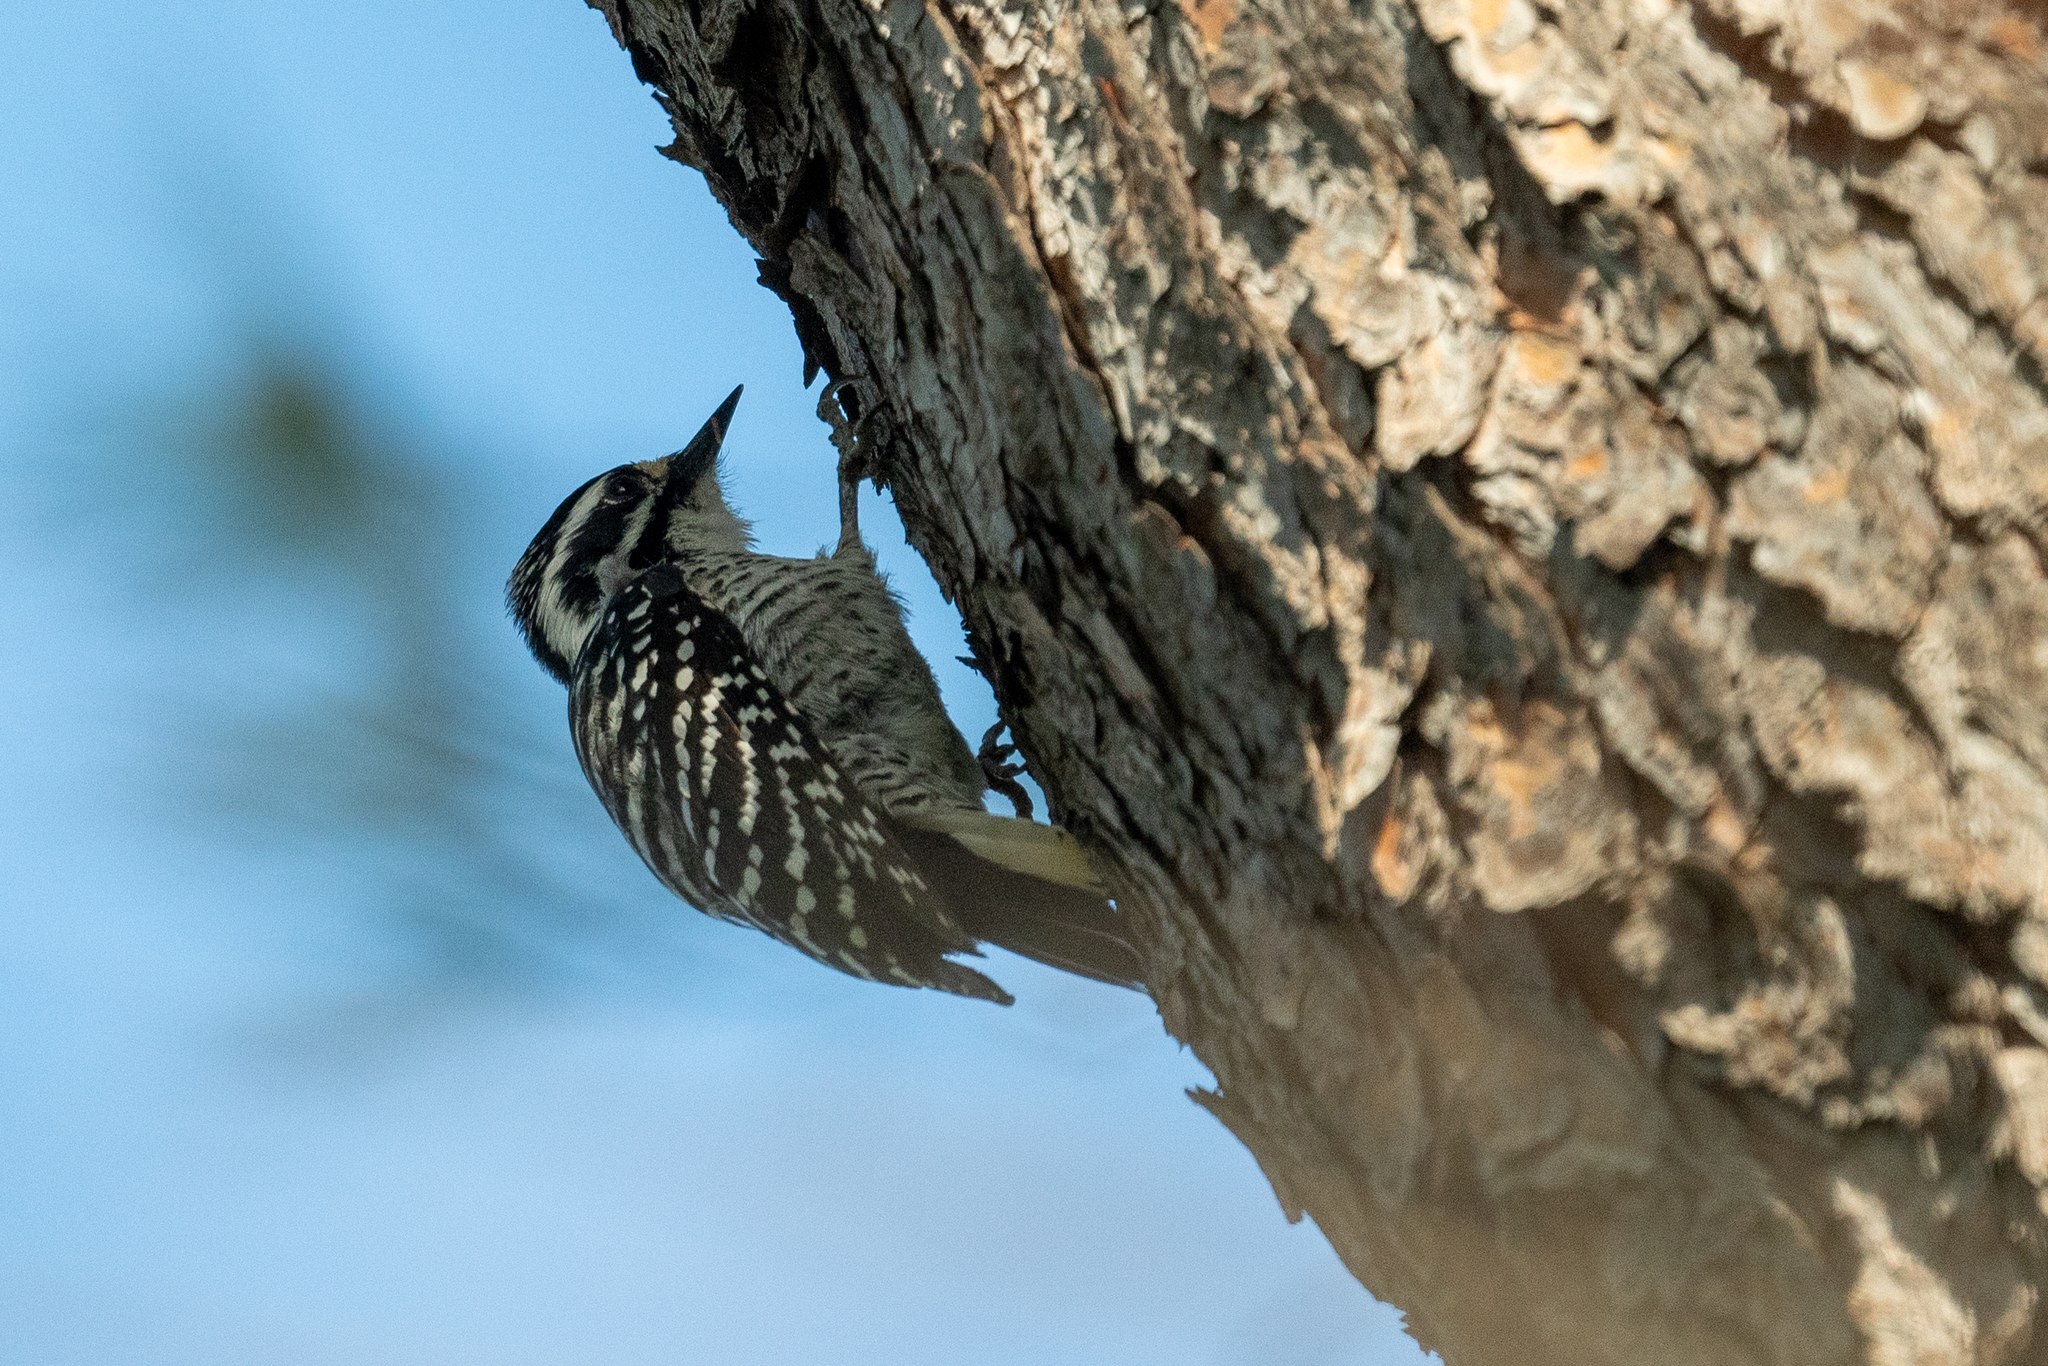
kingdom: Animalia
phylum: Chordata
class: Aves
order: Piciformes
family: Picidae
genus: Dryobates
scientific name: Dryobates nuttallii
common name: Nuttall's woodpecker
